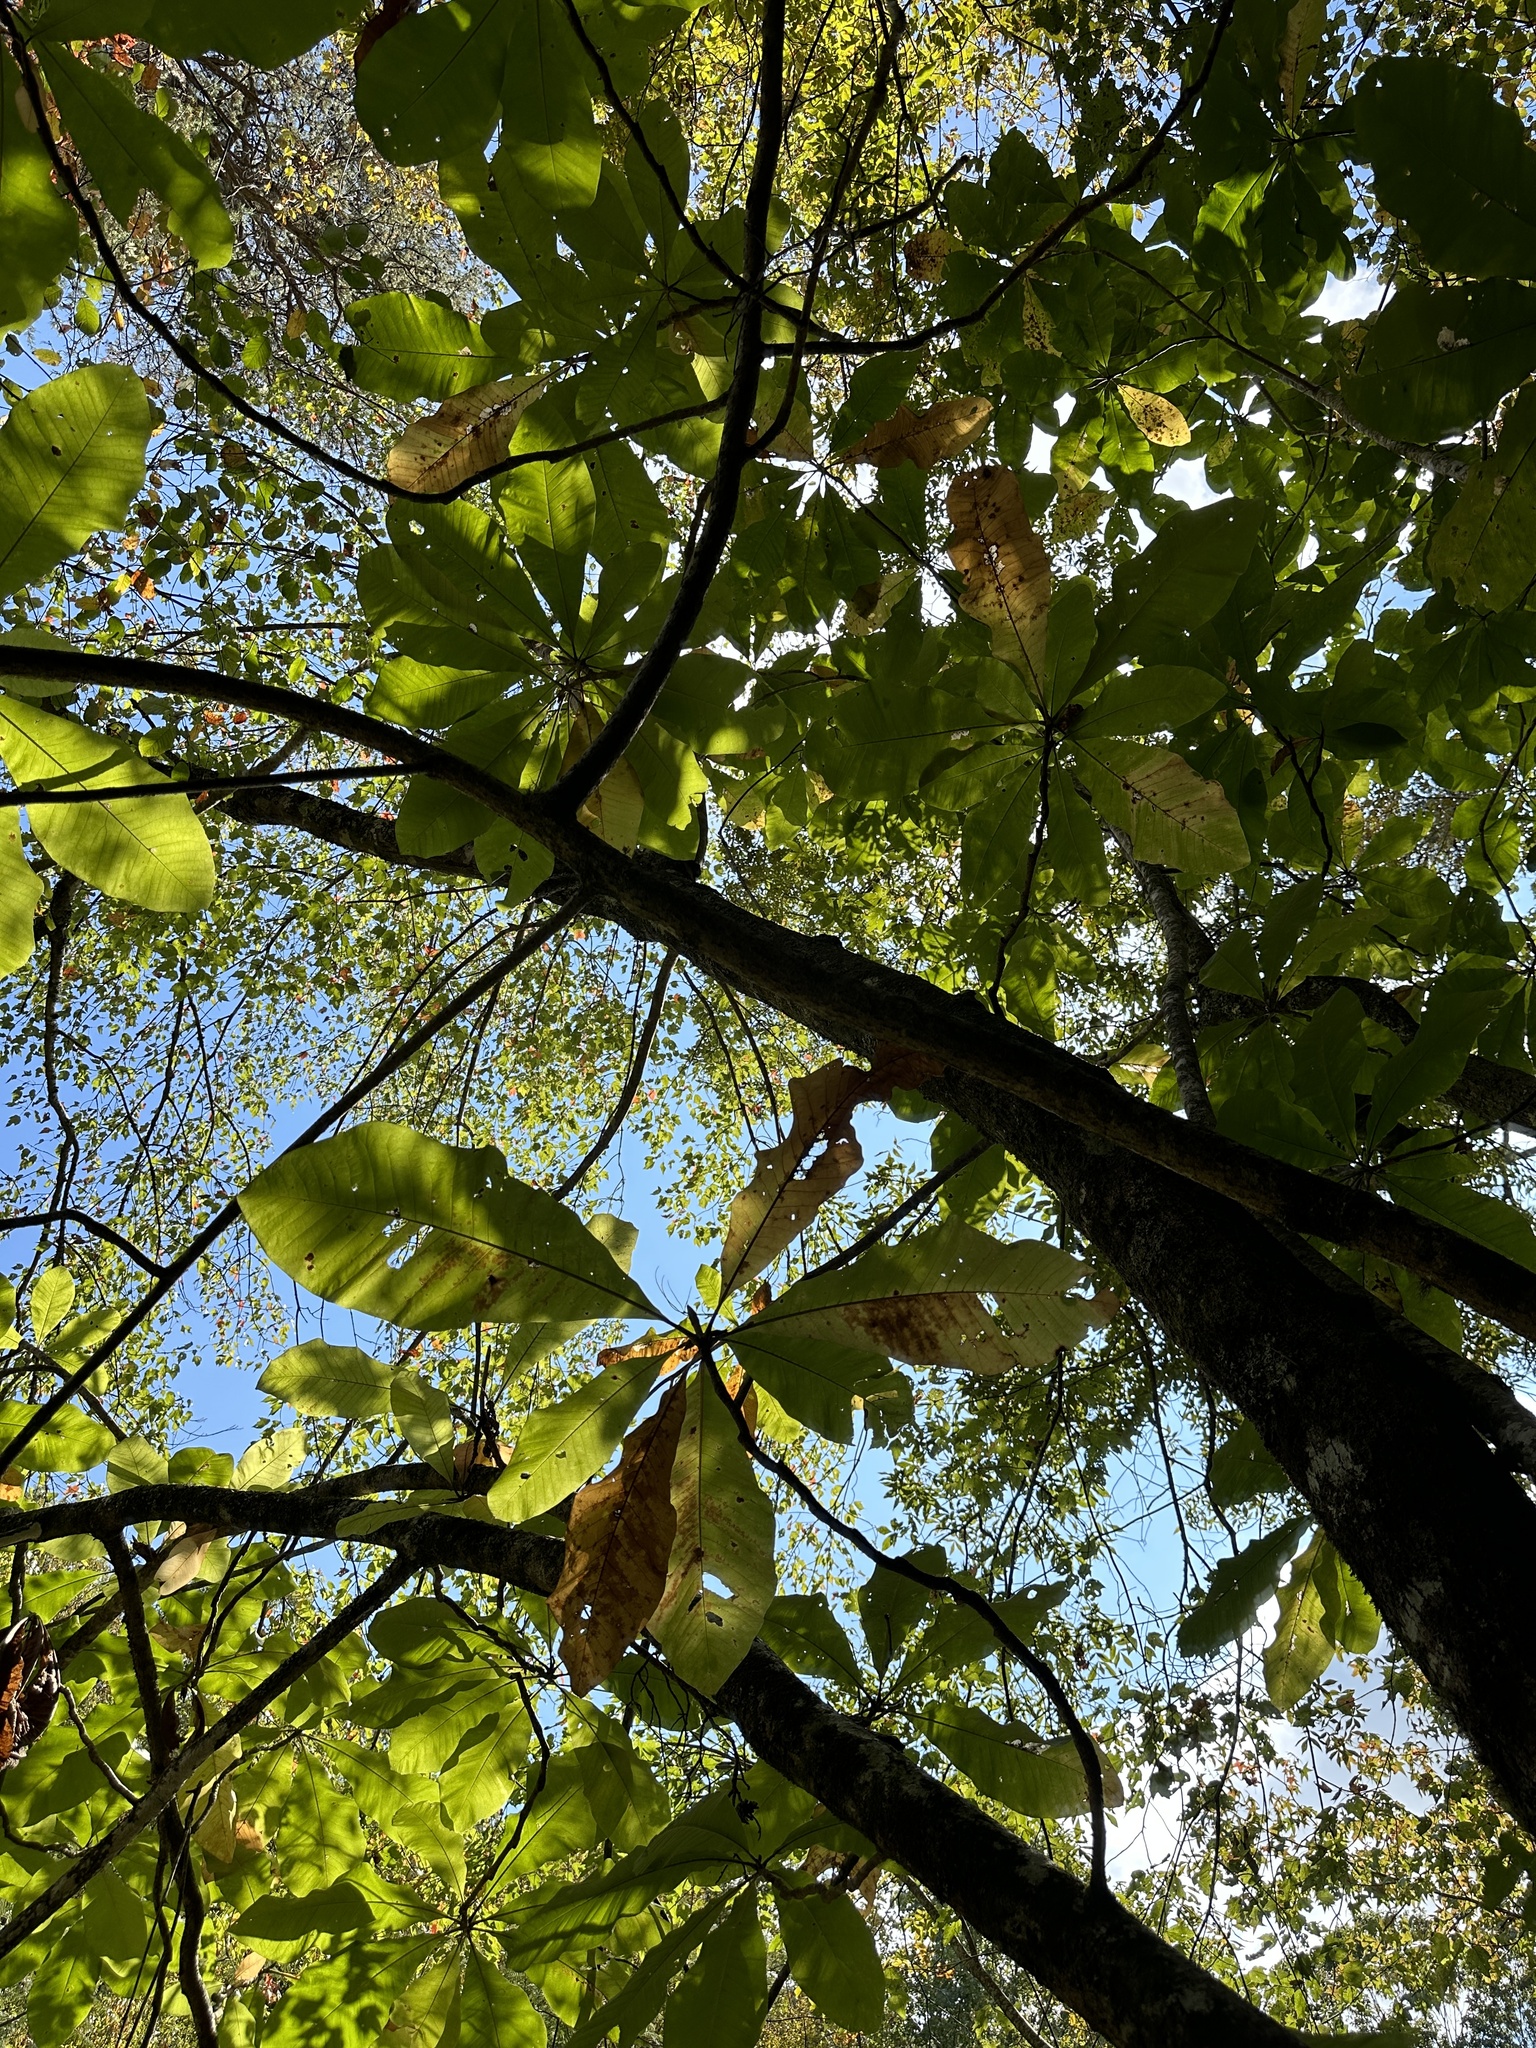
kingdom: Plantae
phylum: Tracheophyta
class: Magnoliopsida
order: Magnoliales
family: Magnoliaceae
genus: Magnolia
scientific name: Magnolia tripetala
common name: Umbrella magnolia
